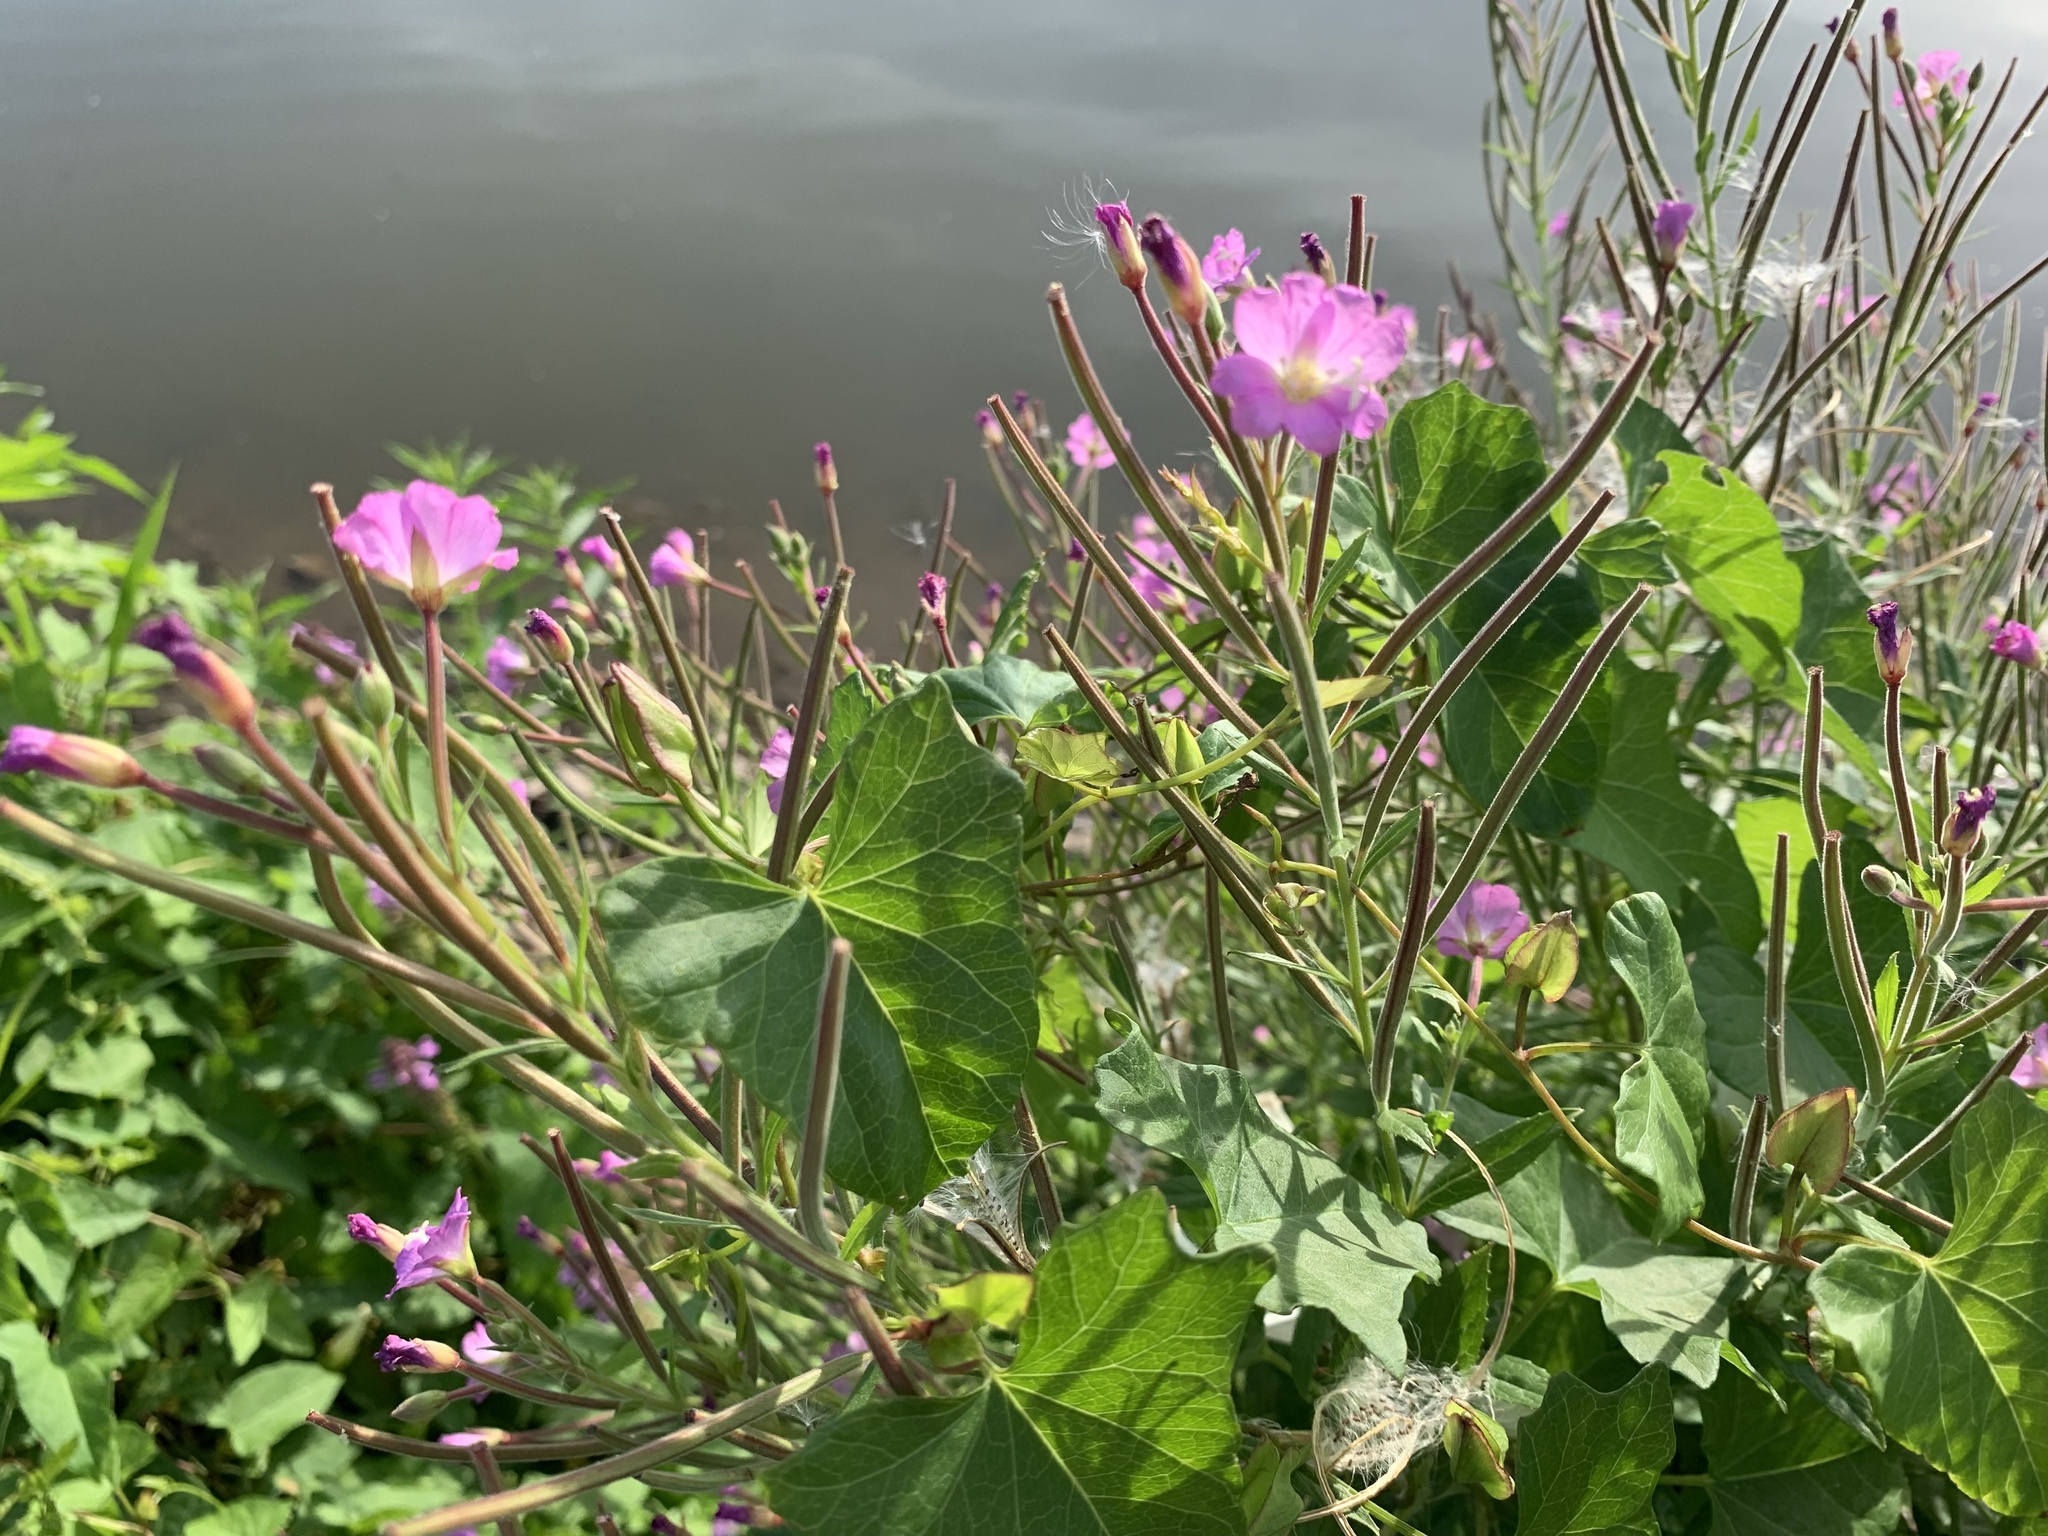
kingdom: Plantae
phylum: Tracheophyta
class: Magnoliopsida
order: Myrtales
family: Onagraceae
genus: Epilobium
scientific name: Epilobium hirsutum
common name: Great willowherb
